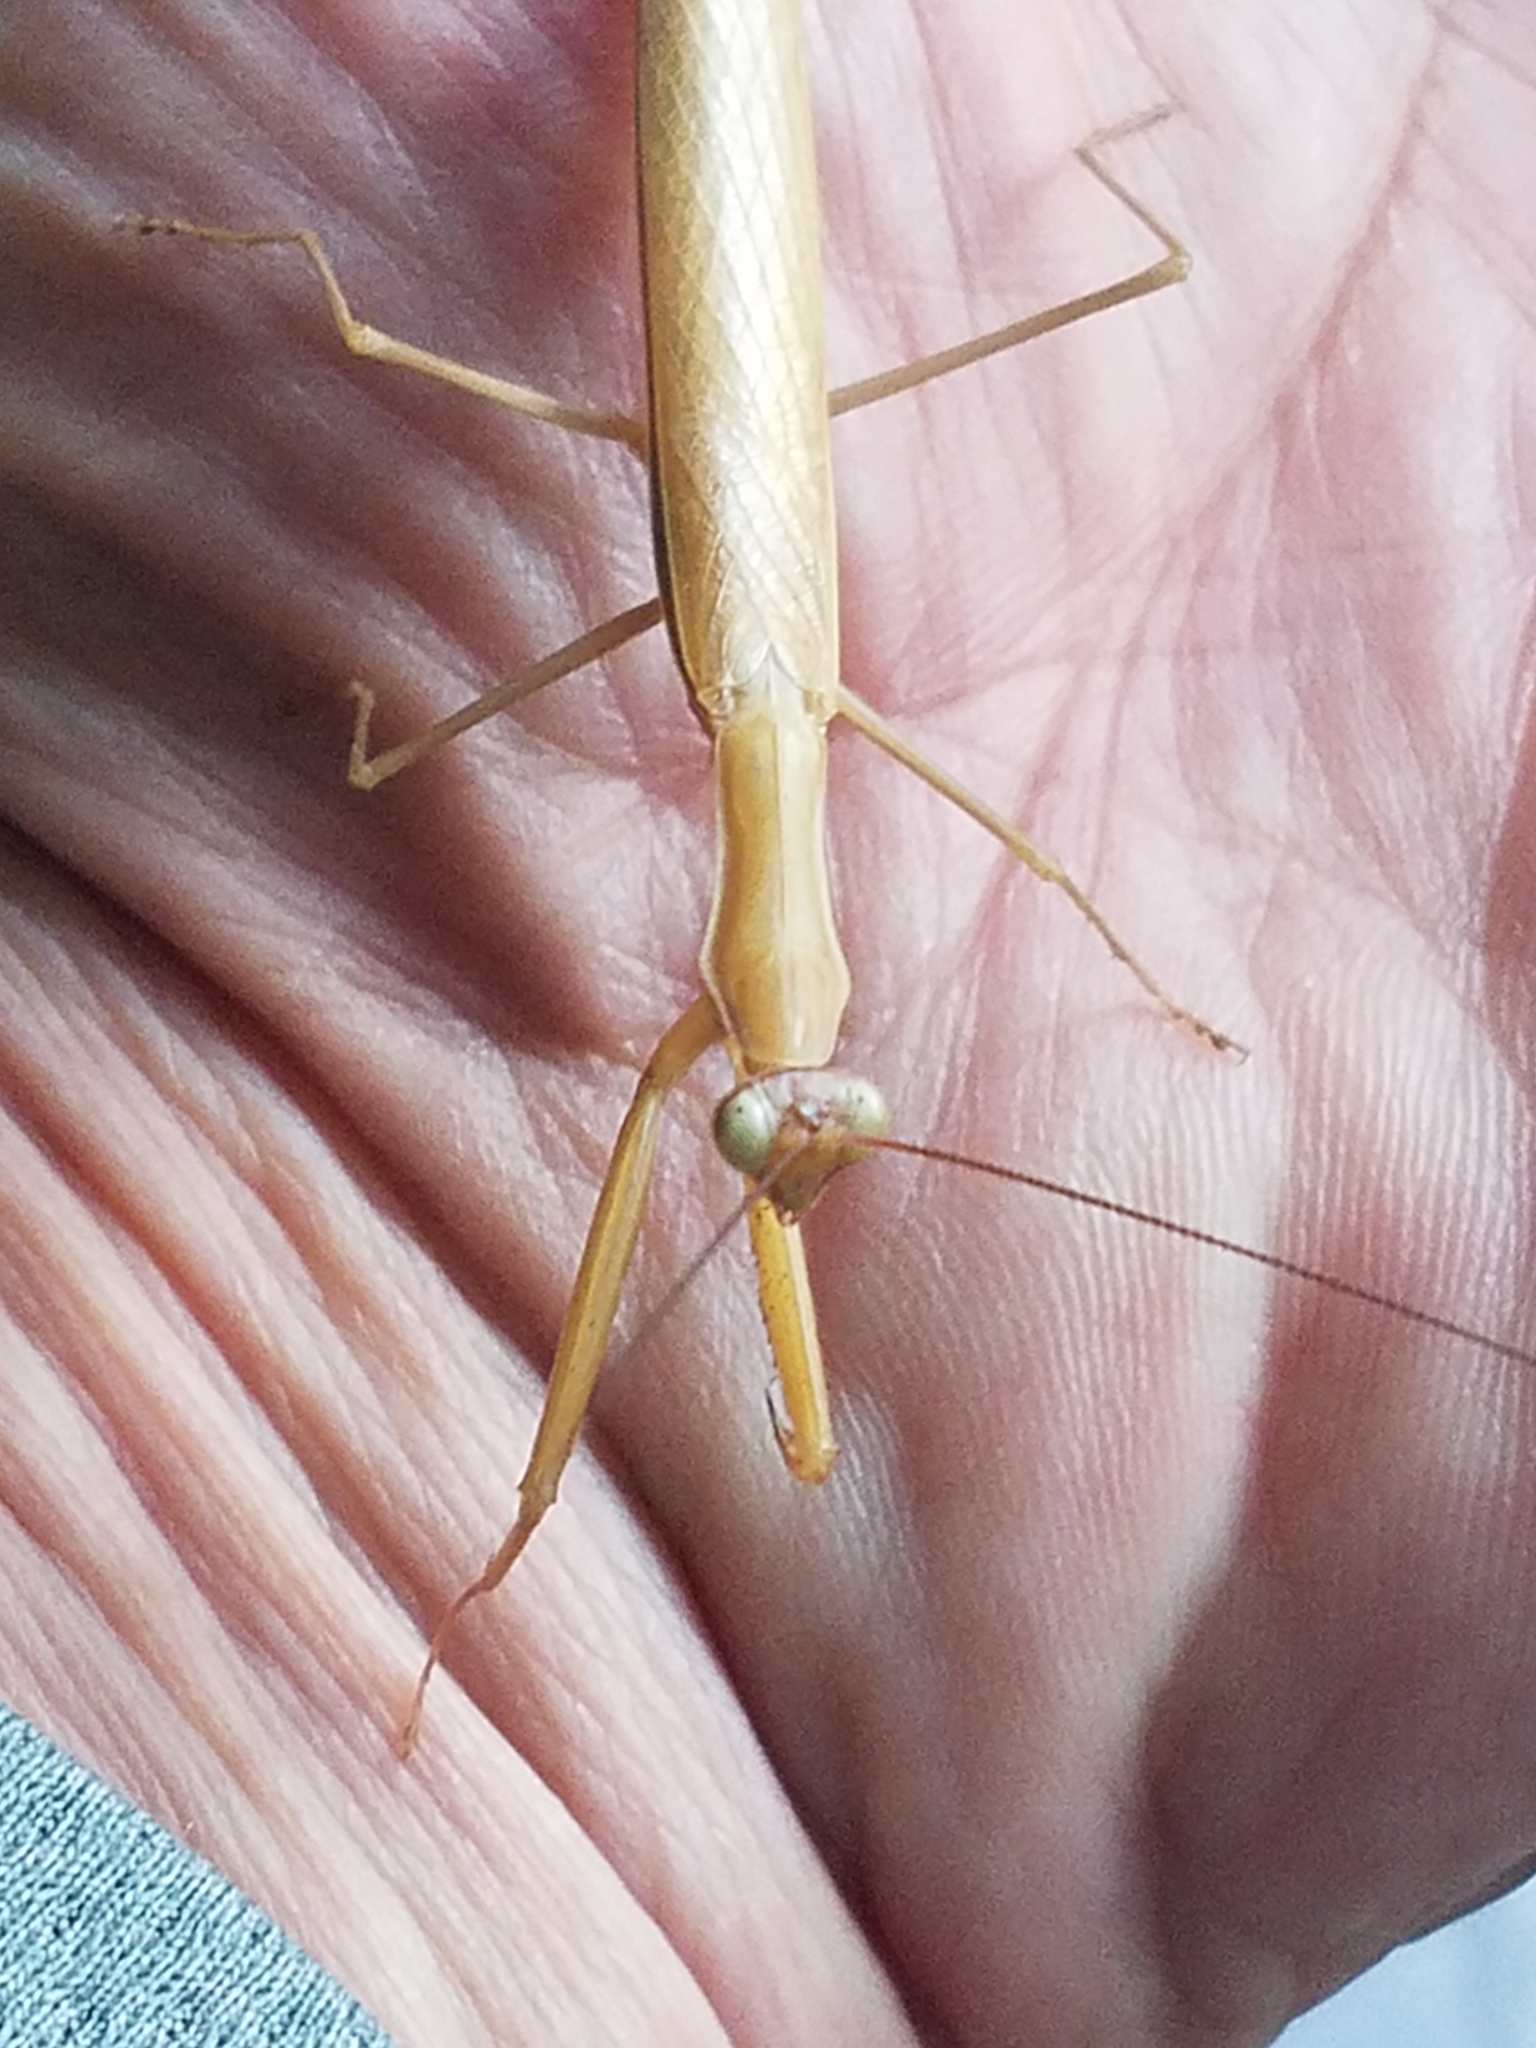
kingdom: Animalia
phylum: Arthropoda
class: Insecta
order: Mantodea
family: Mantidae
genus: Mantis
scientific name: Mantis religiosa
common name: Praying mantis
